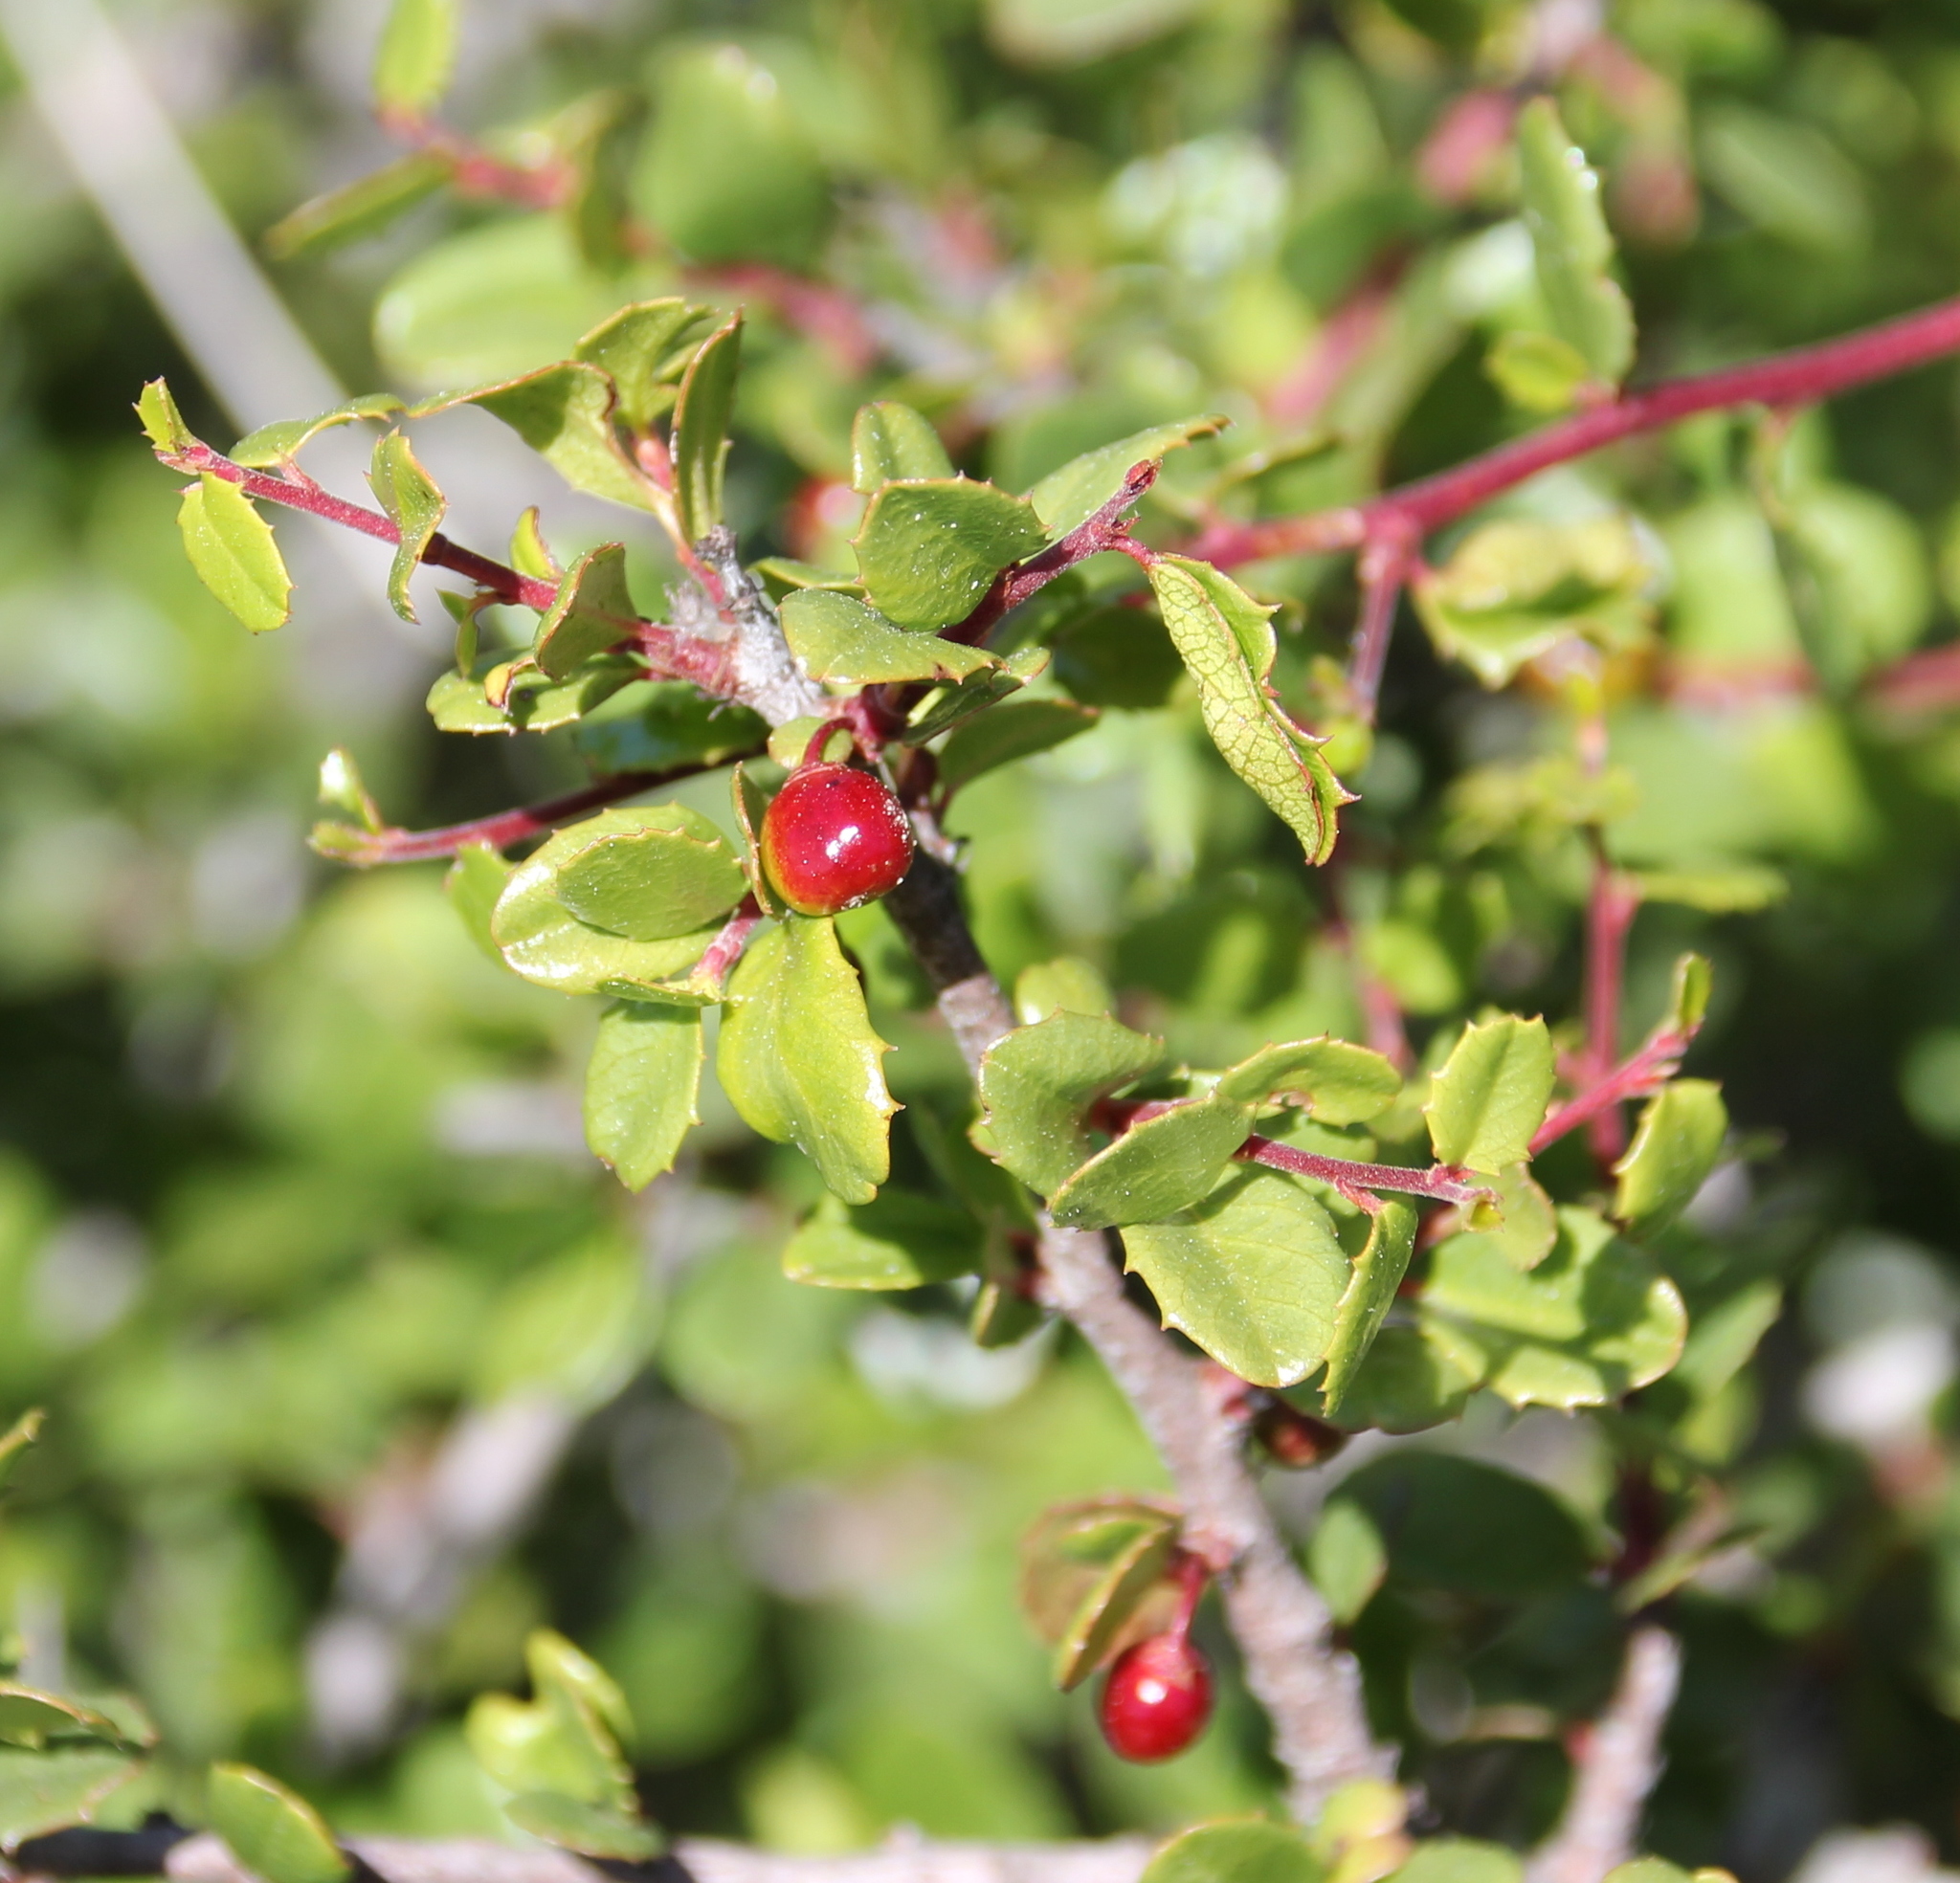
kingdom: Plantae
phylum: Tracheophyta
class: Magnoliopsida
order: Rosales
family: Rhamnaceae
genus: Endotropis
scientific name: Endotropis crocea
